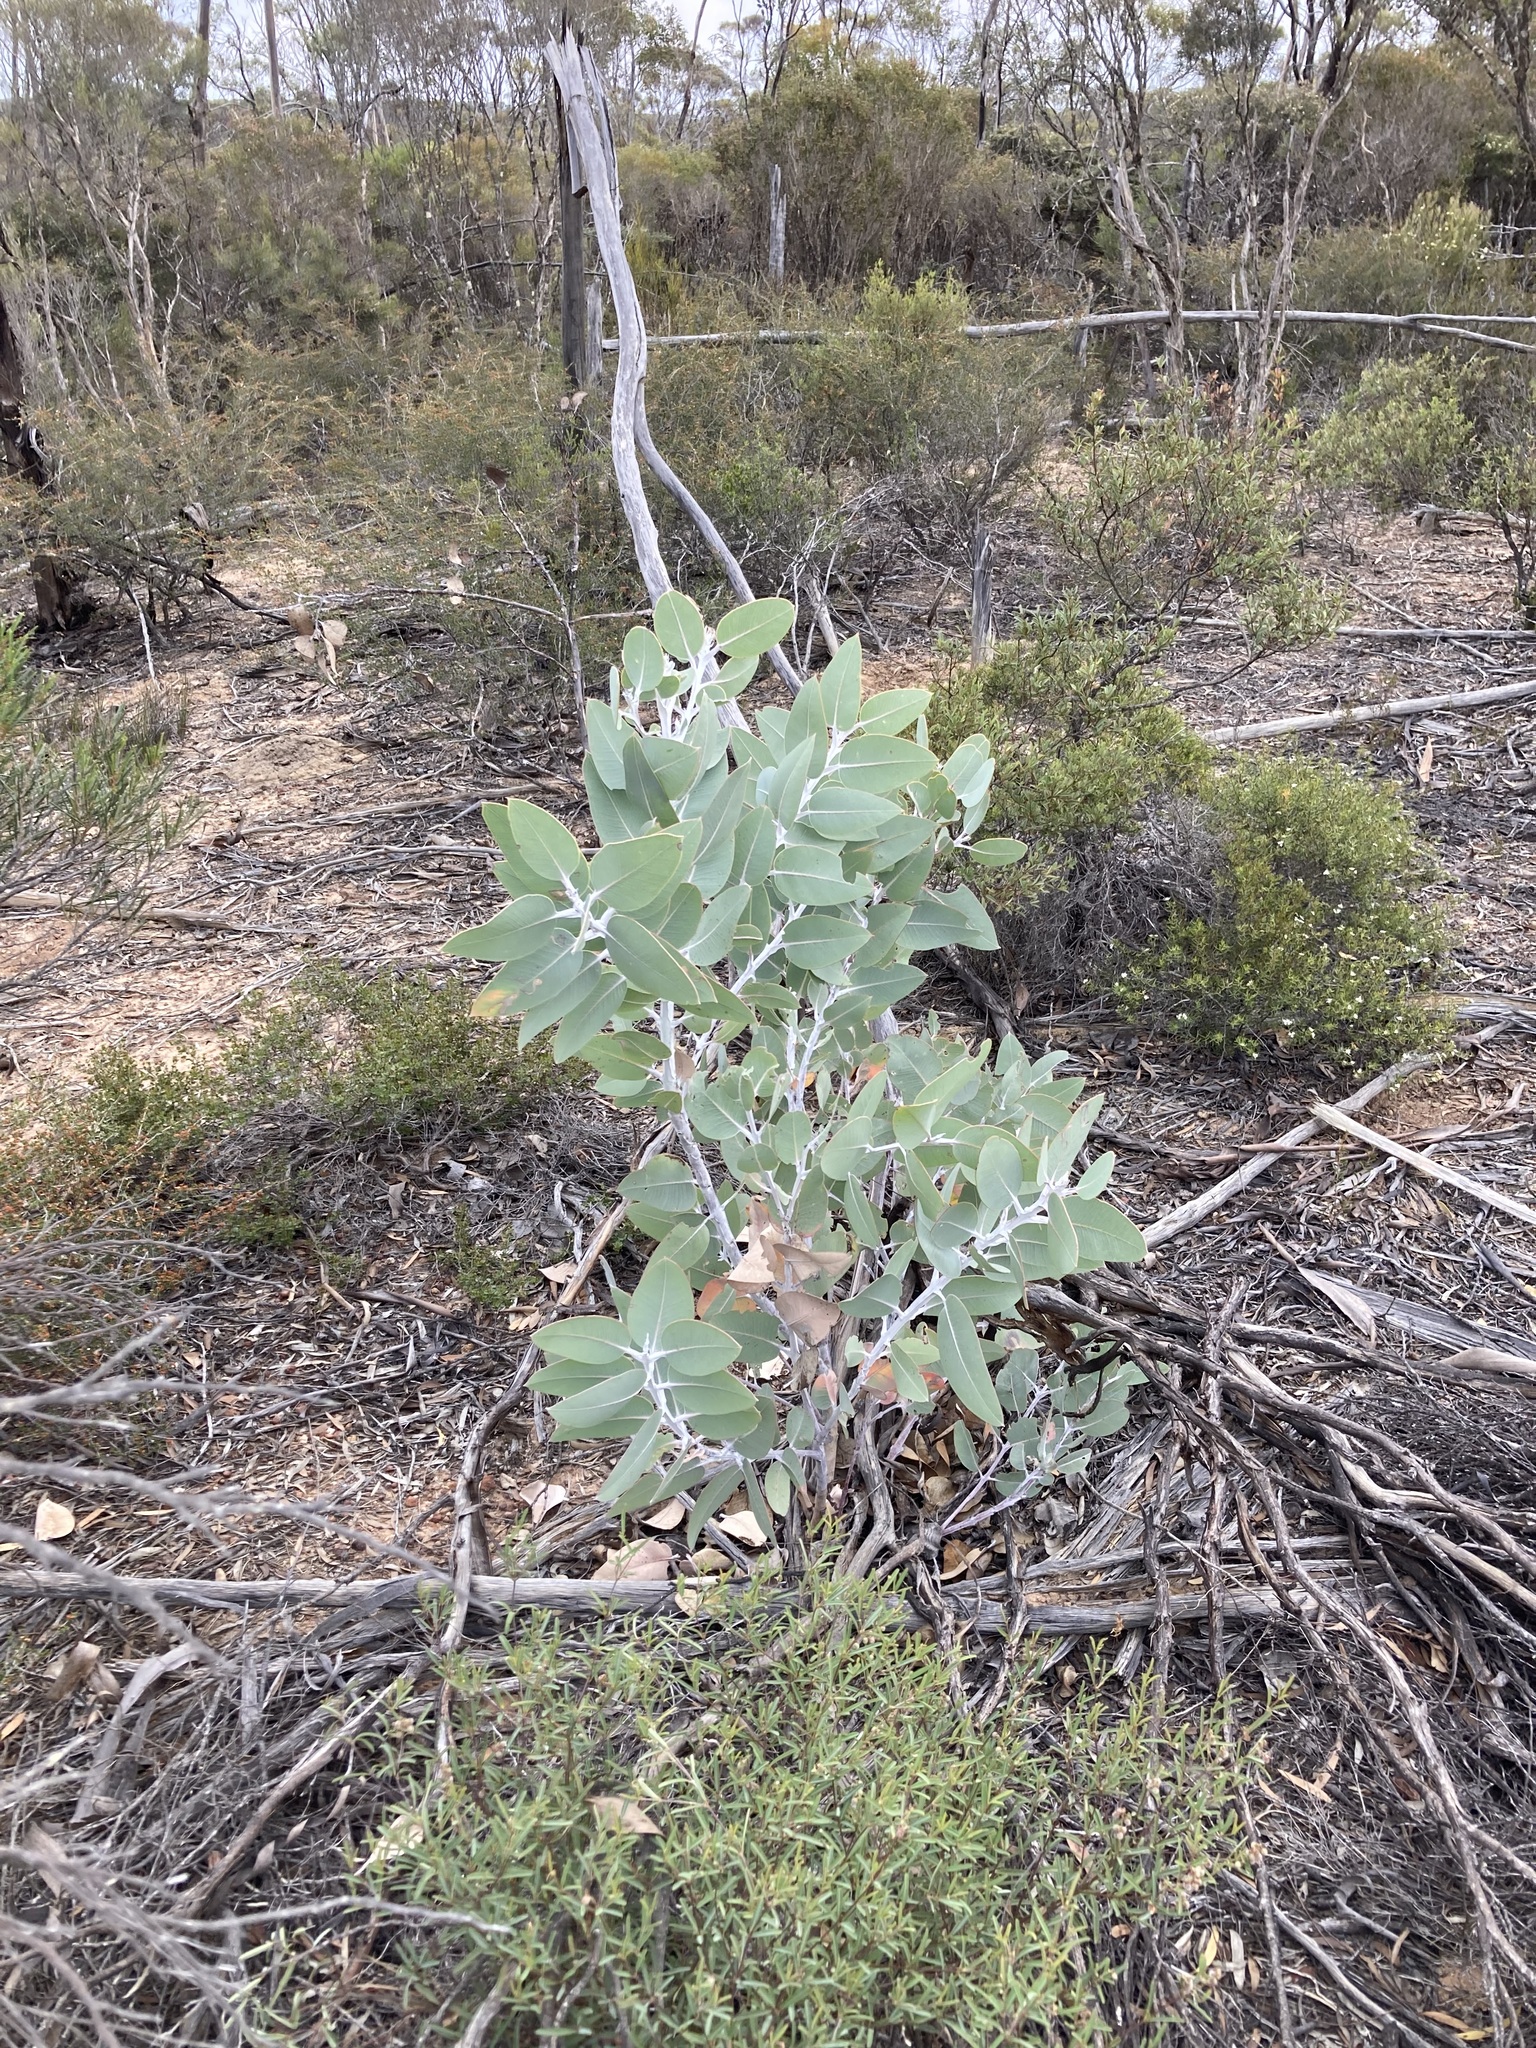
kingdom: Plantae
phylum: Tracheophyta
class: Magnoliopsida
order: Myrtales
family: Myrtaceae
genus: Eucalyptus
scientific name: Eucalyptus tetragona
